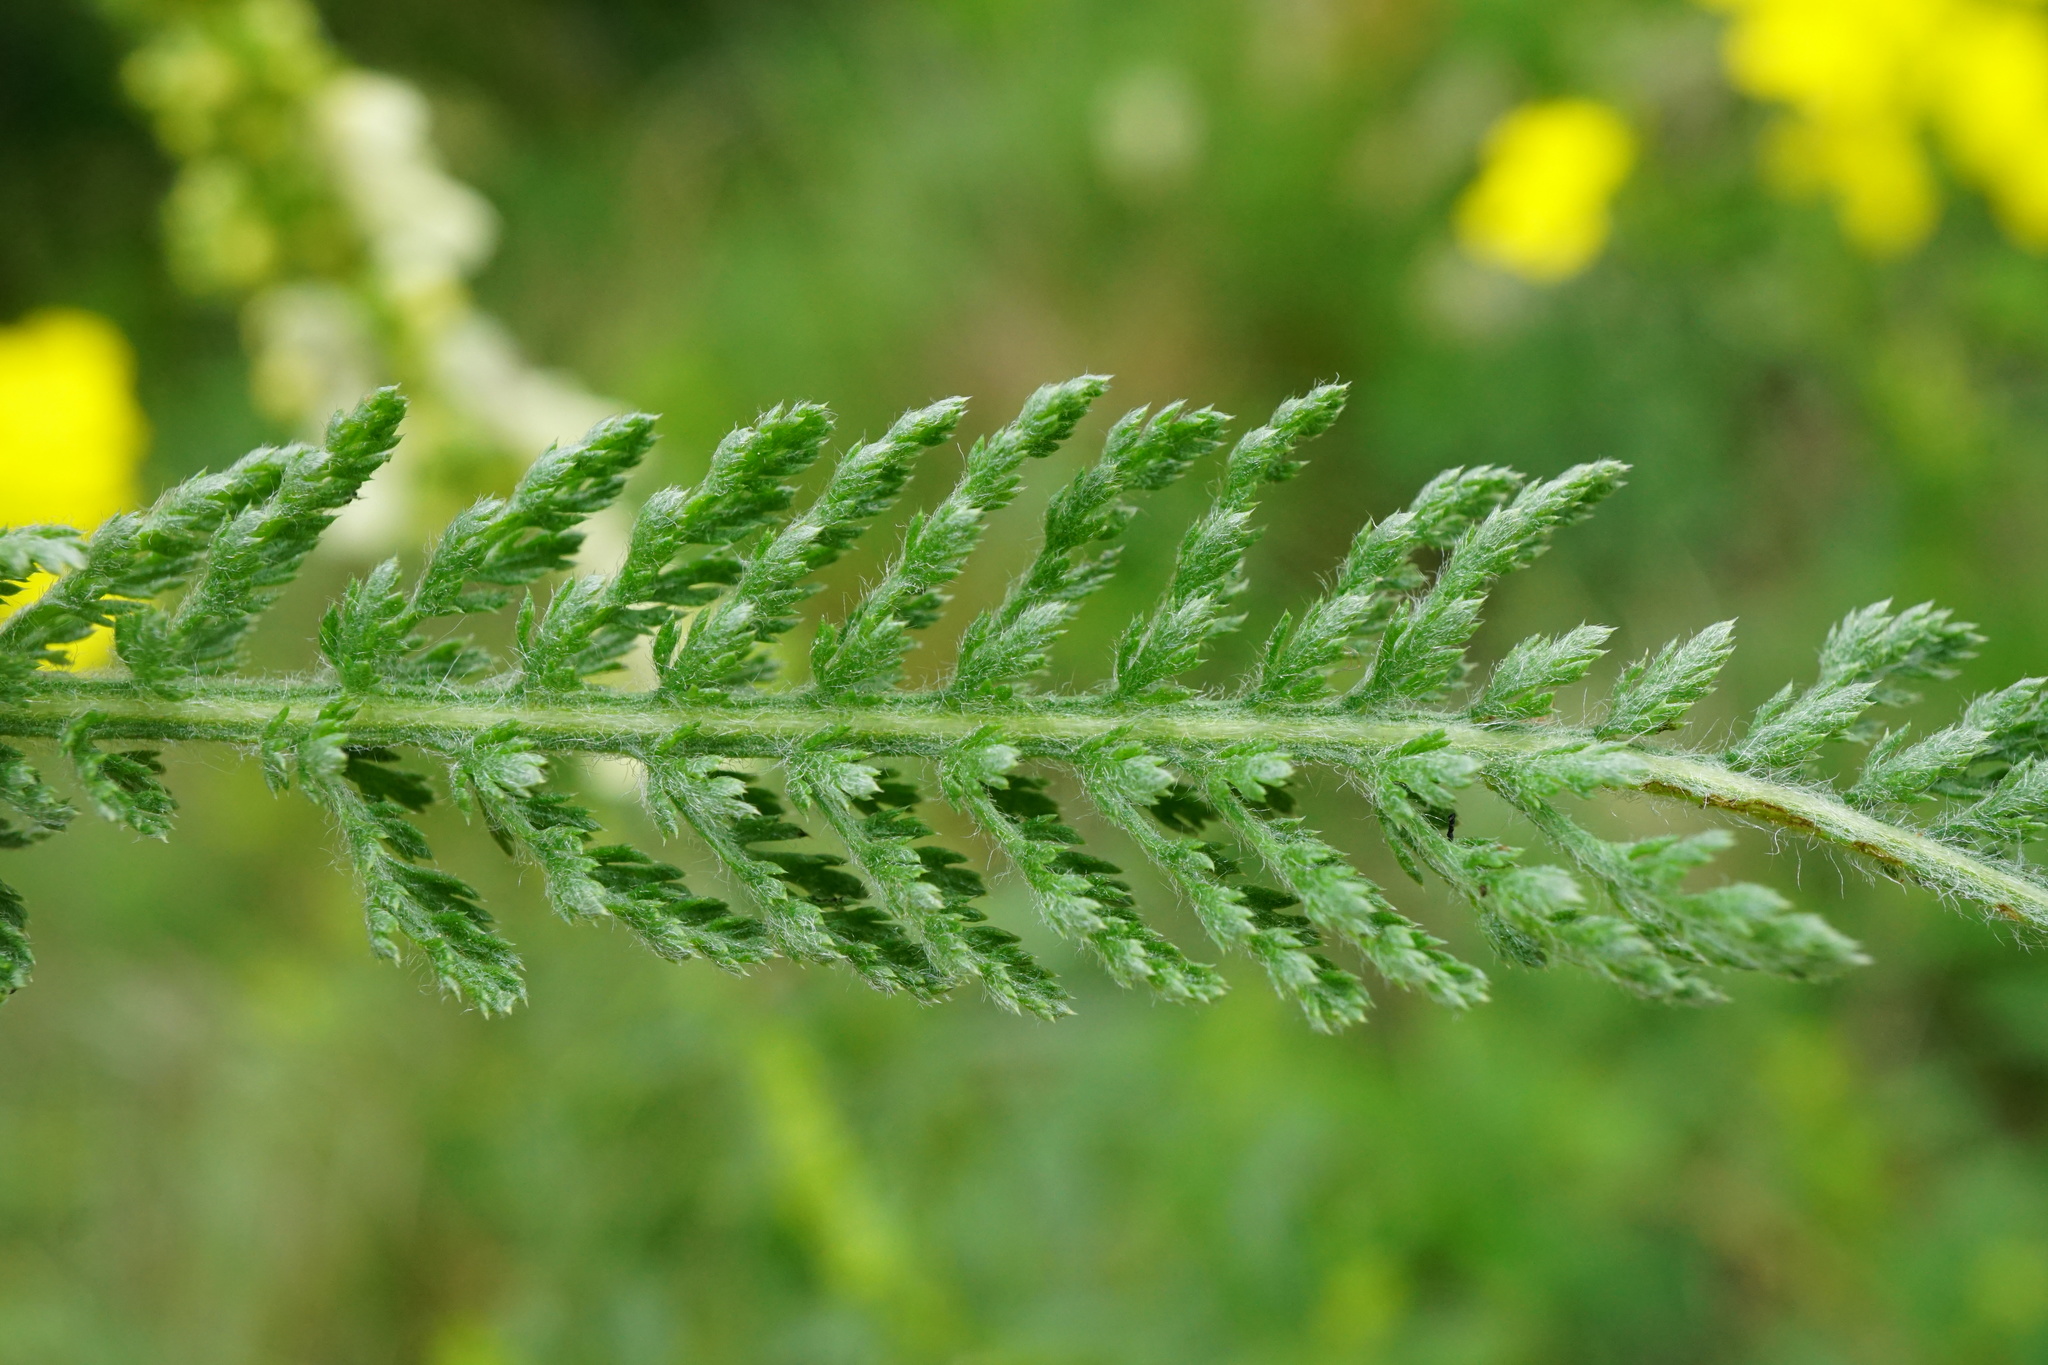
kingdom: Plantae
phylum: Tracheophyta
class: Magnoliopsida
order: Asterales
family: Asteraceae
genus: Achillea
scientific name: Achillea pannonica
